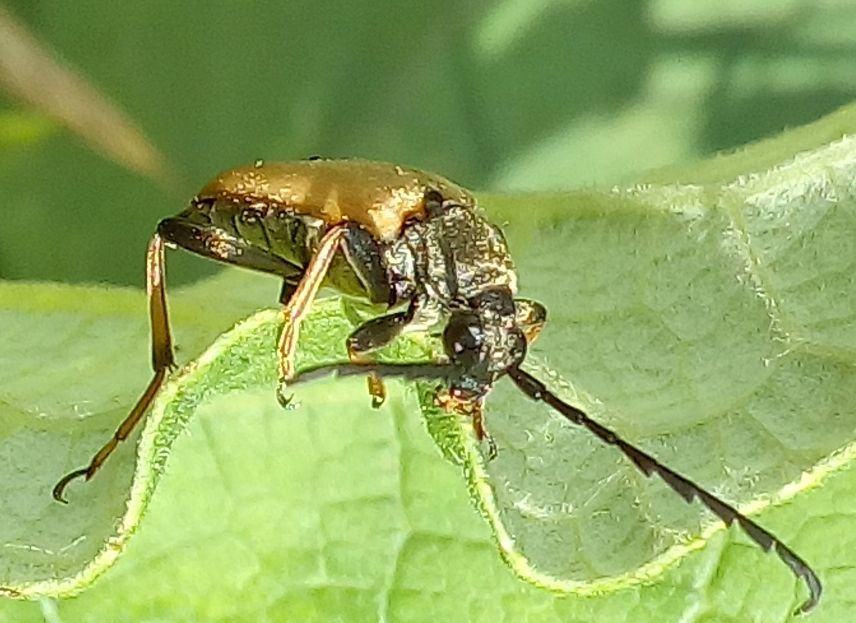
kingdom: Animalia
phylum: Arthropoda
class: Insecta
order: Coleoptera
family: Cerambycidae
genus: Stictoleptura
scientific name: Stictoleptura rubra
